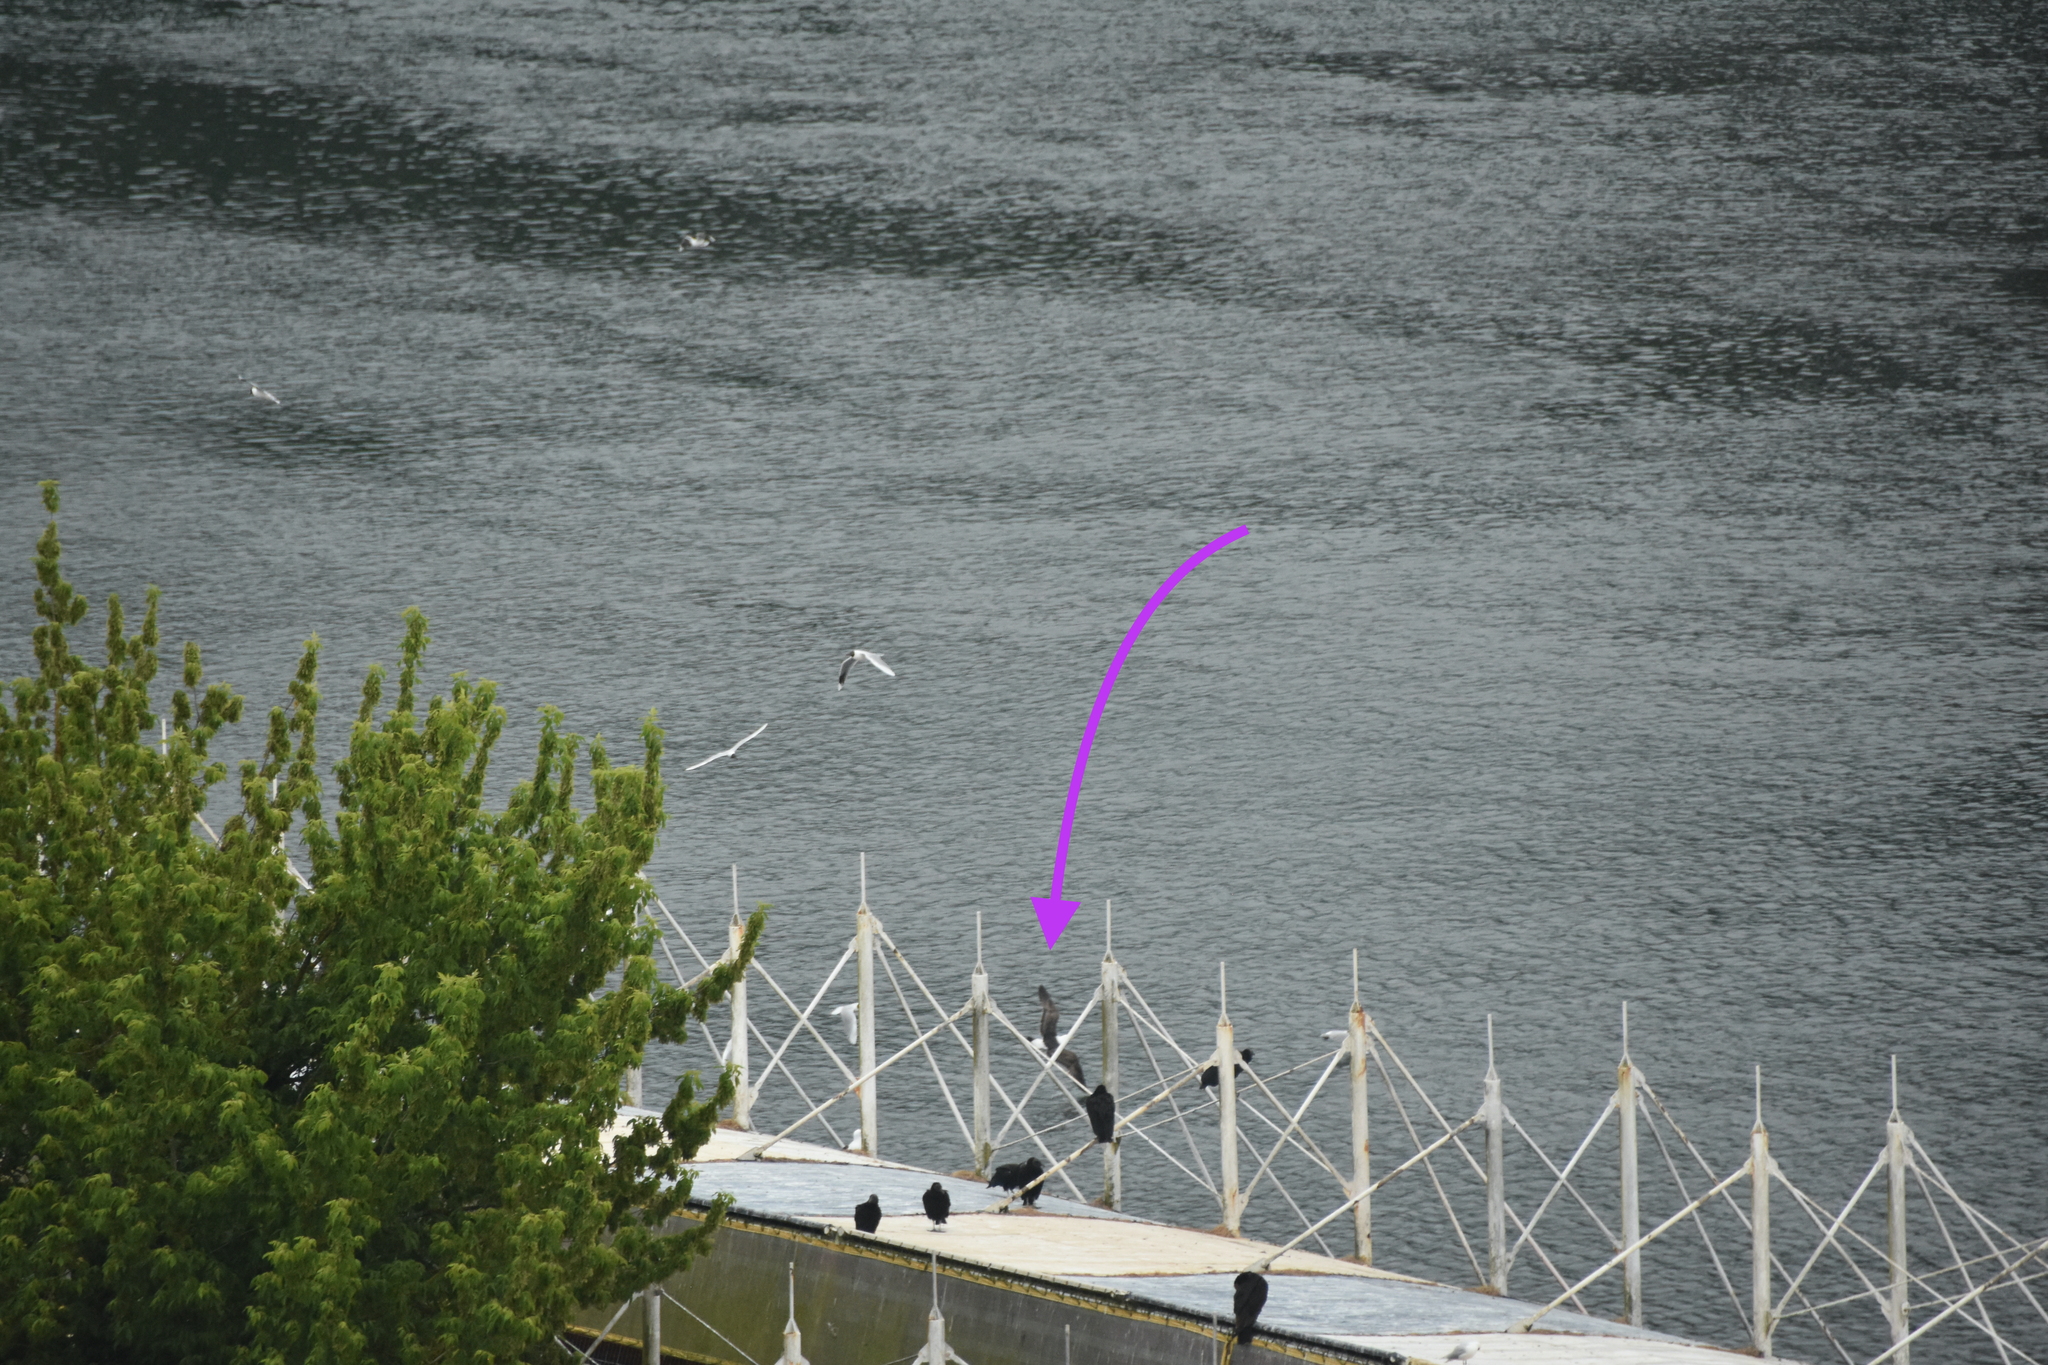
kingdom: Animalia
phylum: Chordata
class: Aves
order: Charadriiformes
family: Laridae
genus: Larus
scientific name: Larus dominicanus
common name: Kelp gull
